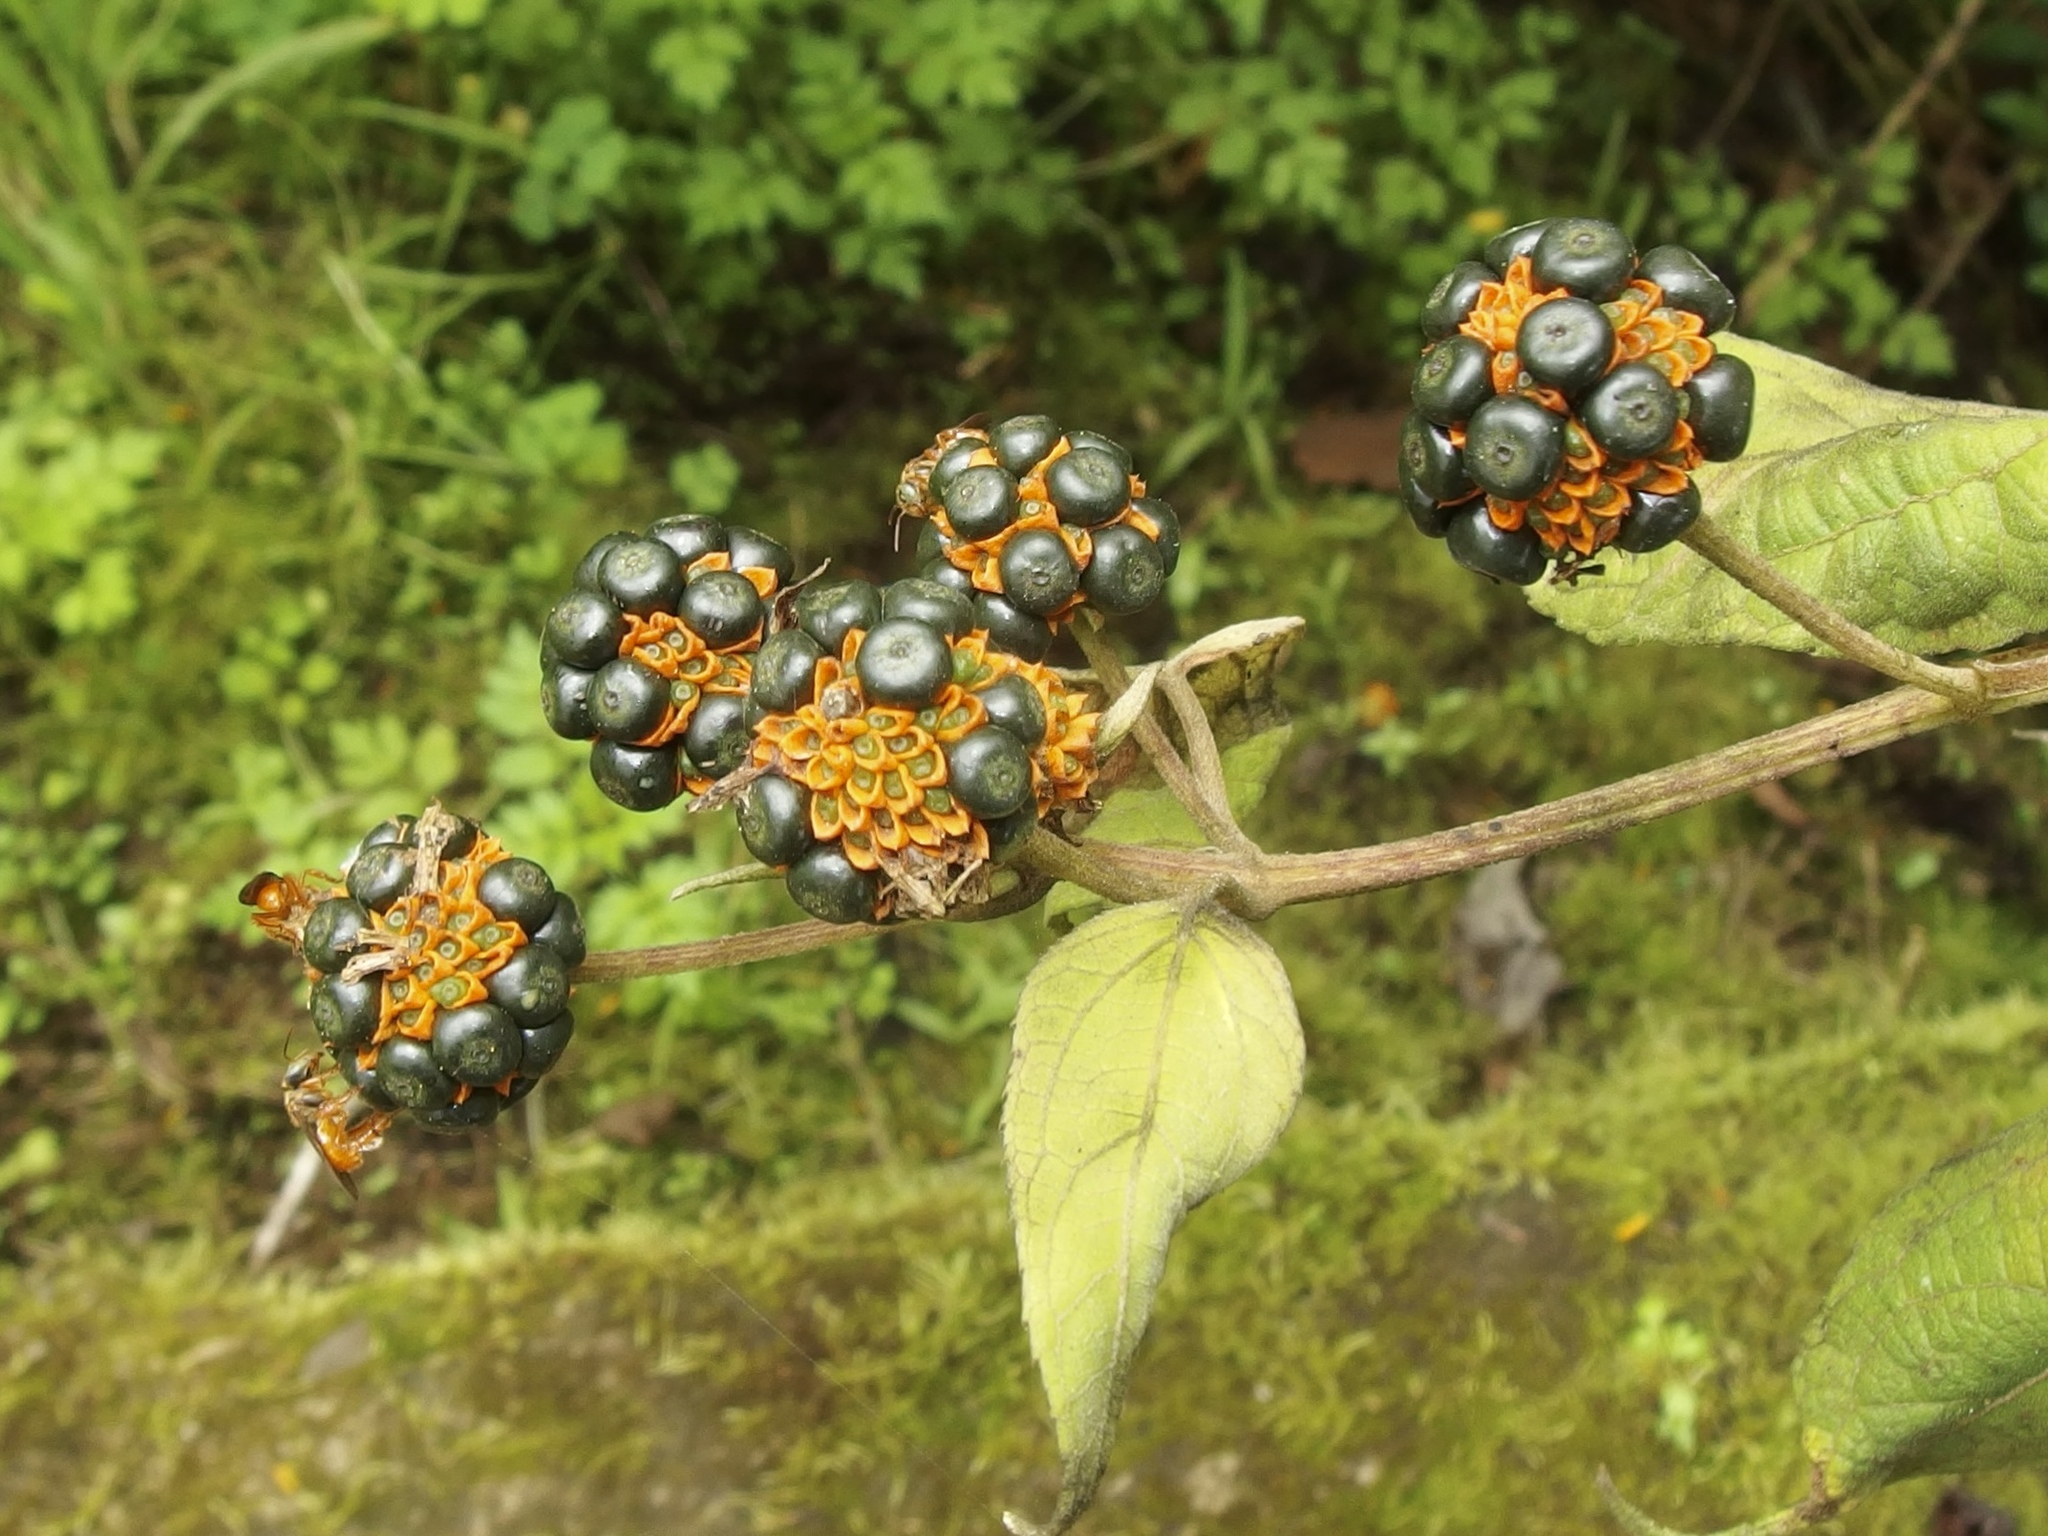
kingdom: Plantae
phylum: Tracheophyta
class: Magnoliopsida
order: Asterales
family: Asteraceae
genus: Tilesia
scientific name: Tilesia baccata
